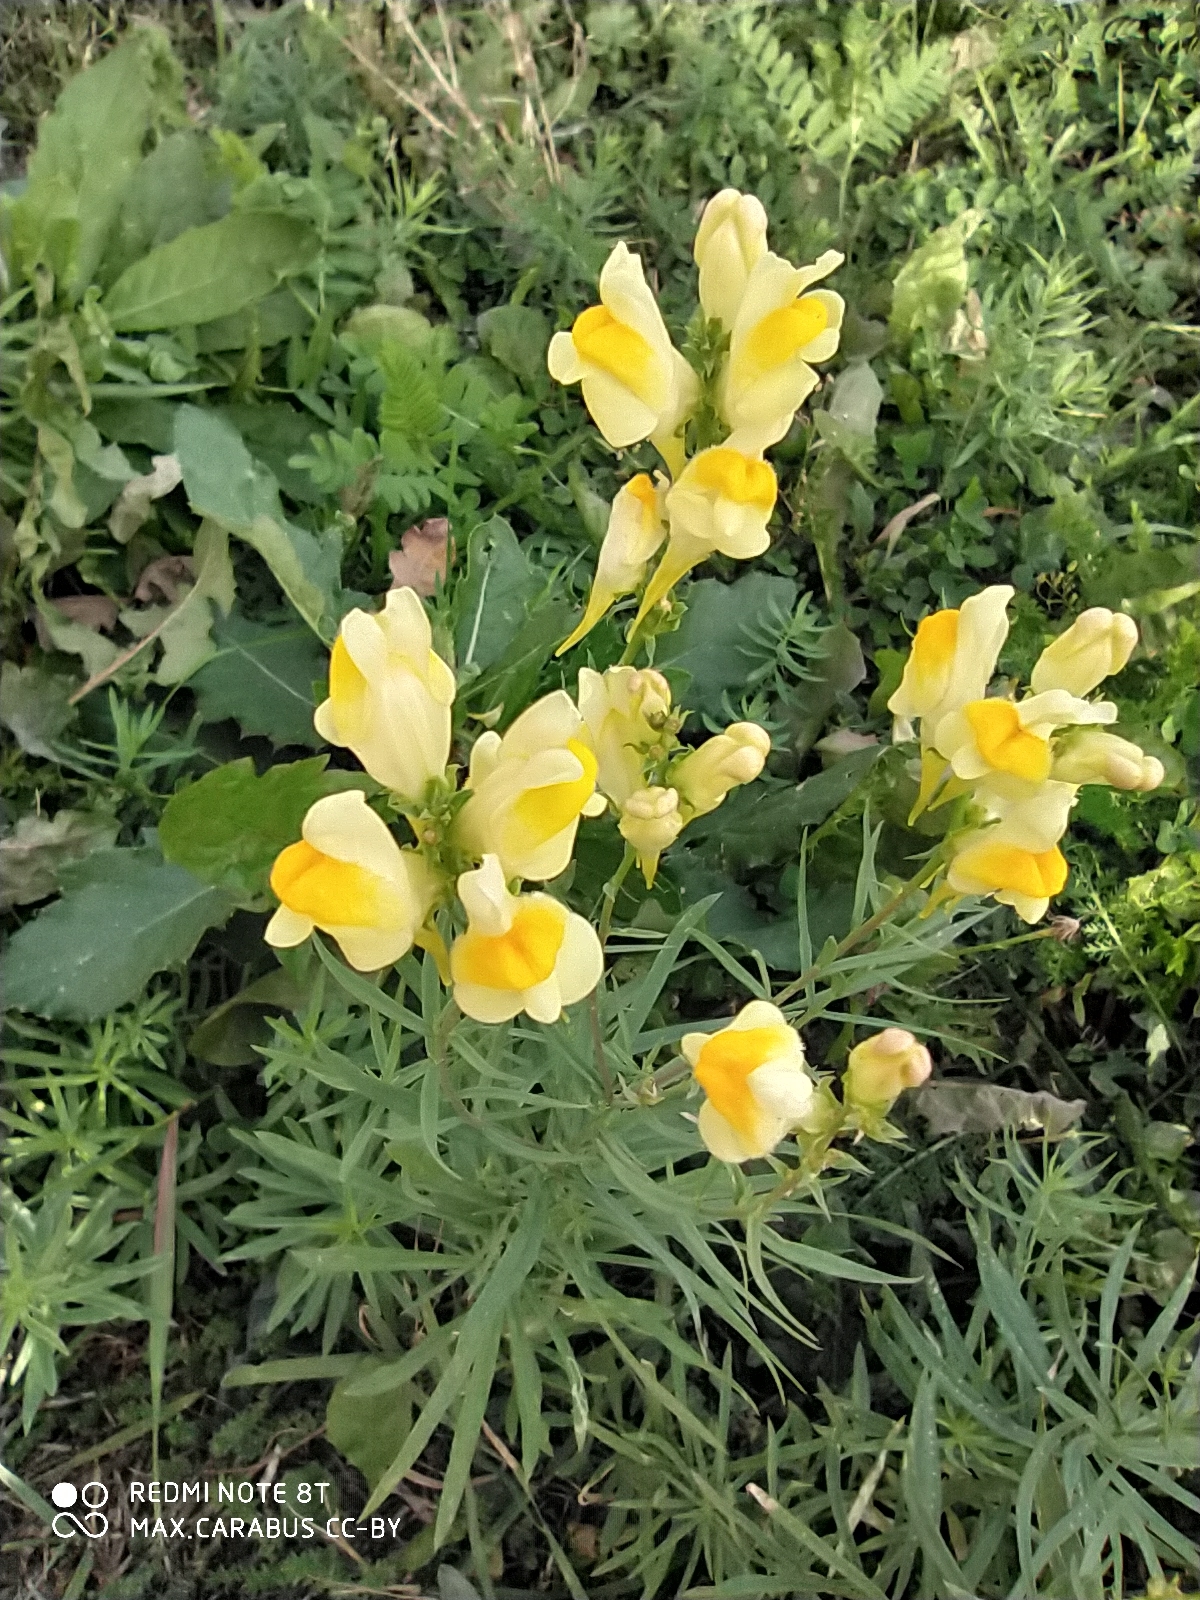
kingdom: Plantae
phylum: Tracheophyta
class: Magnoliopsida
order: Lamiales
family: Plantaginaceae
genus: Linaria
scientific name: Linaria vulgaris
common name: Butter and eggs
